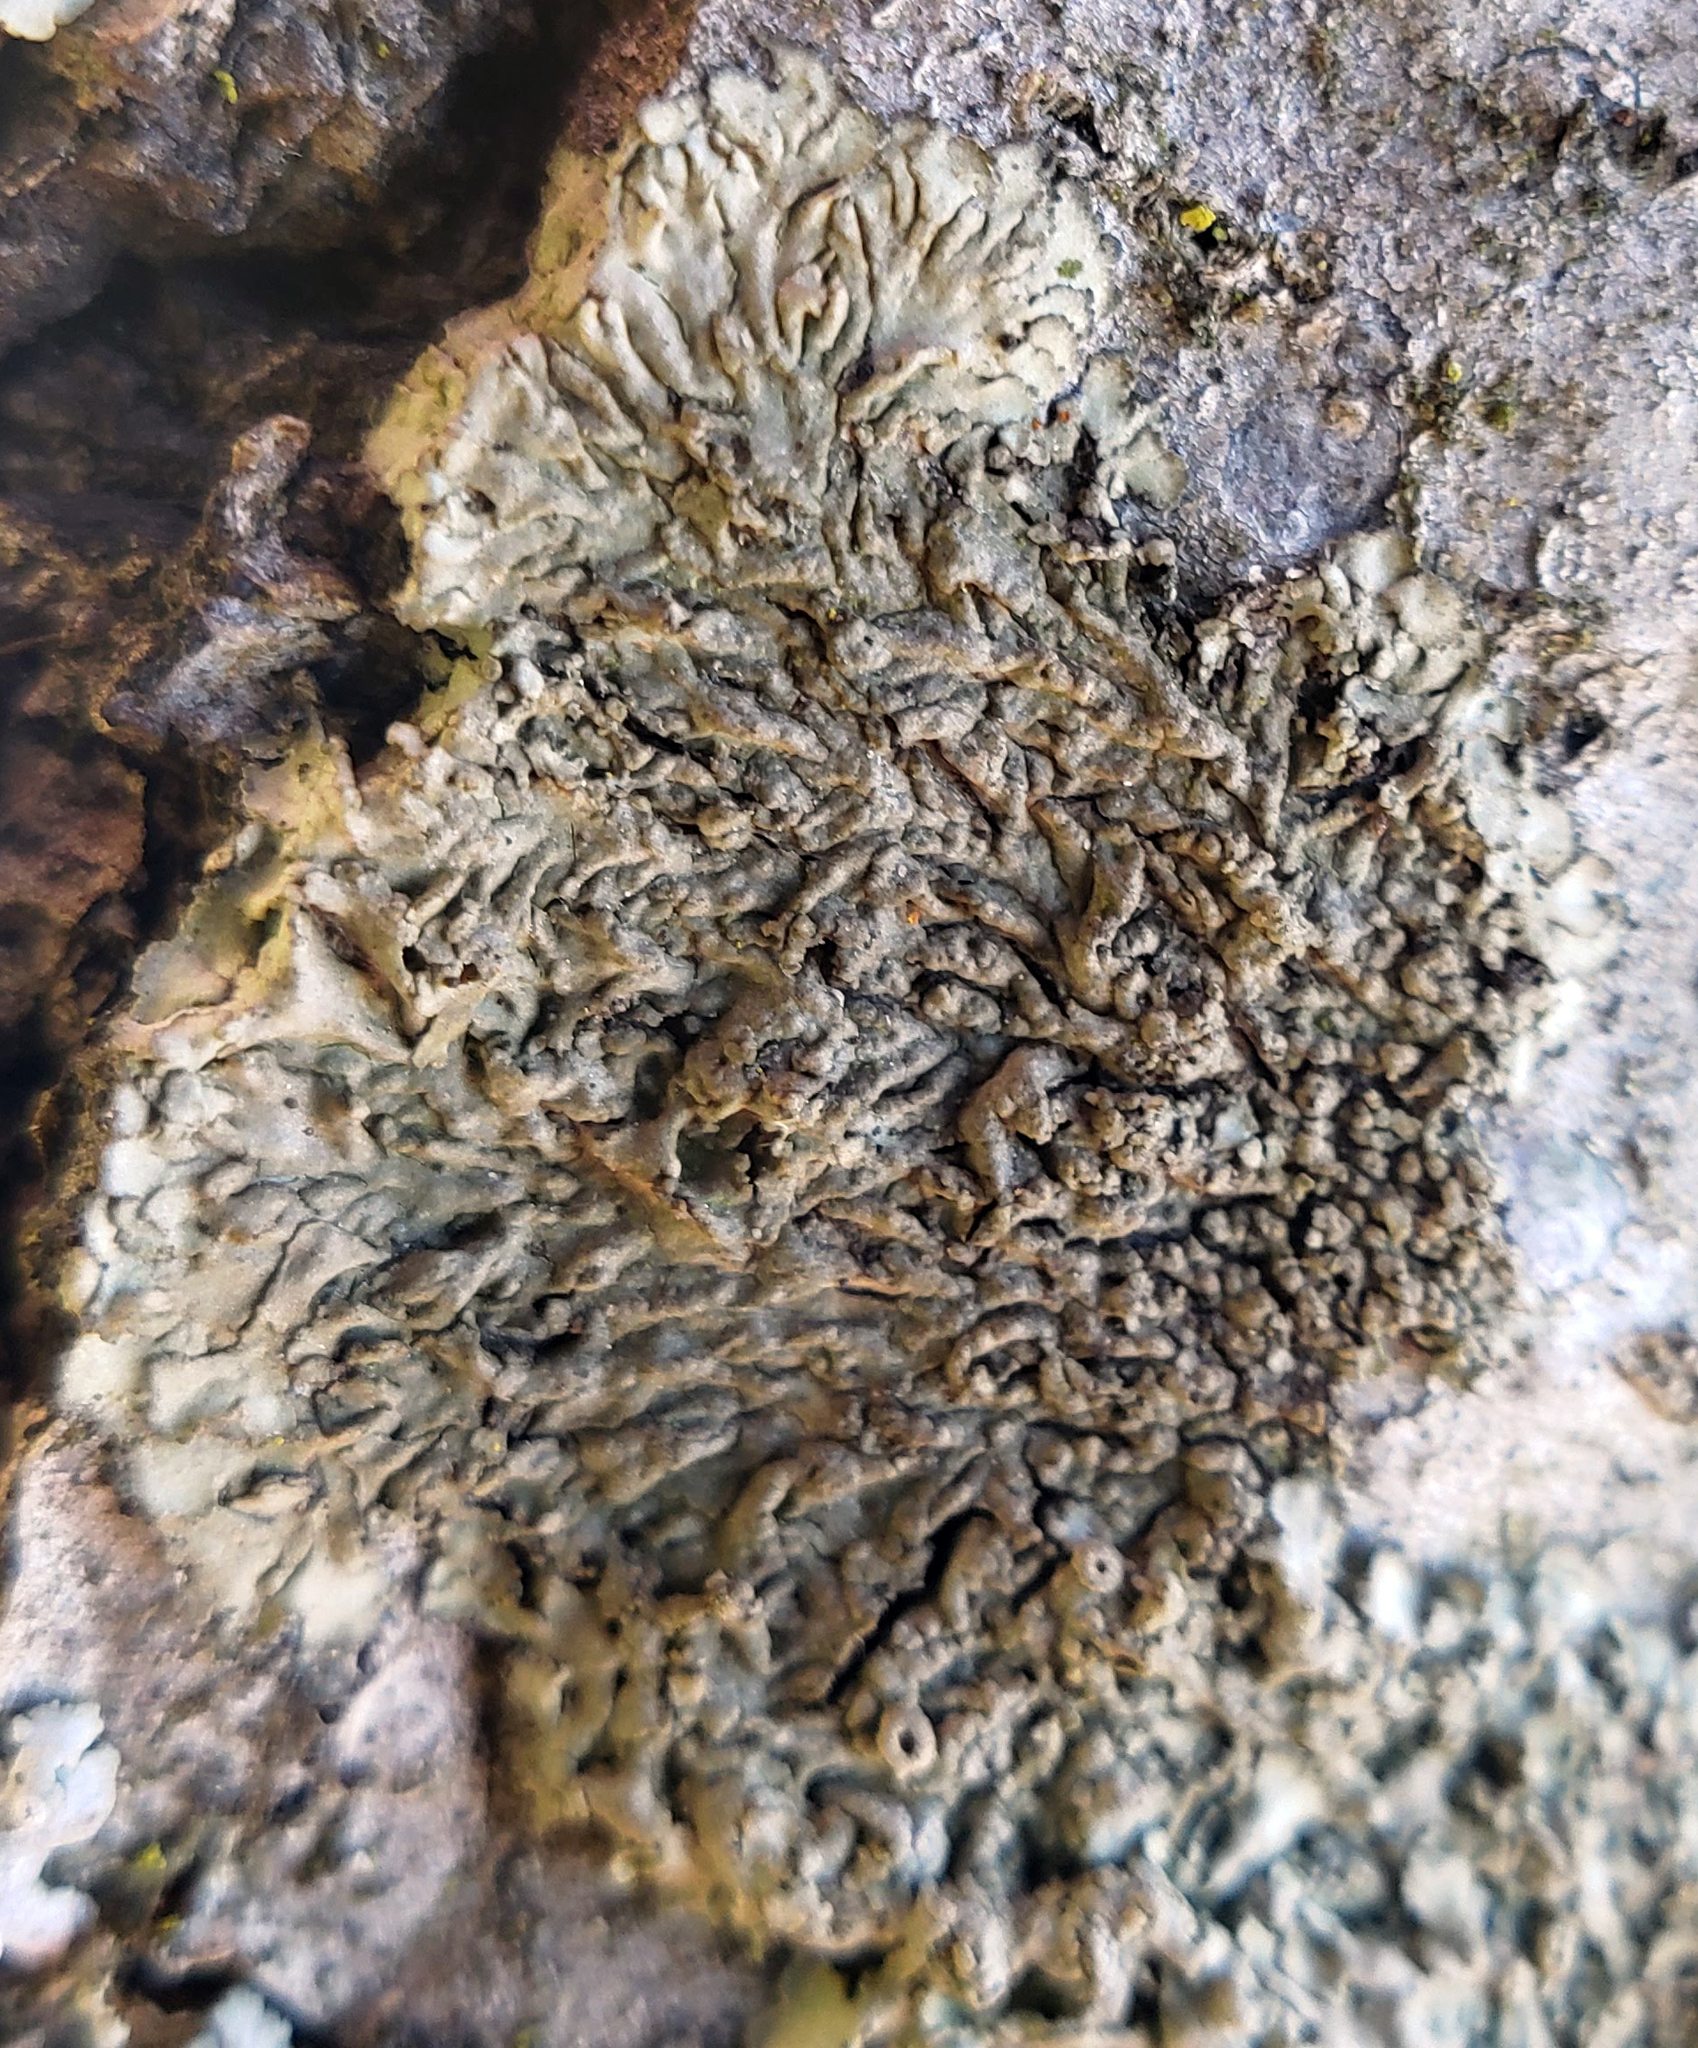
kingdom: Fungi
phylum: Ascomycota
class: Lecanoromycetes
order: Caliciales
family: Physciaceae
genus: Hyperphyscia
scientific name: Hyperphyscia syncolla
